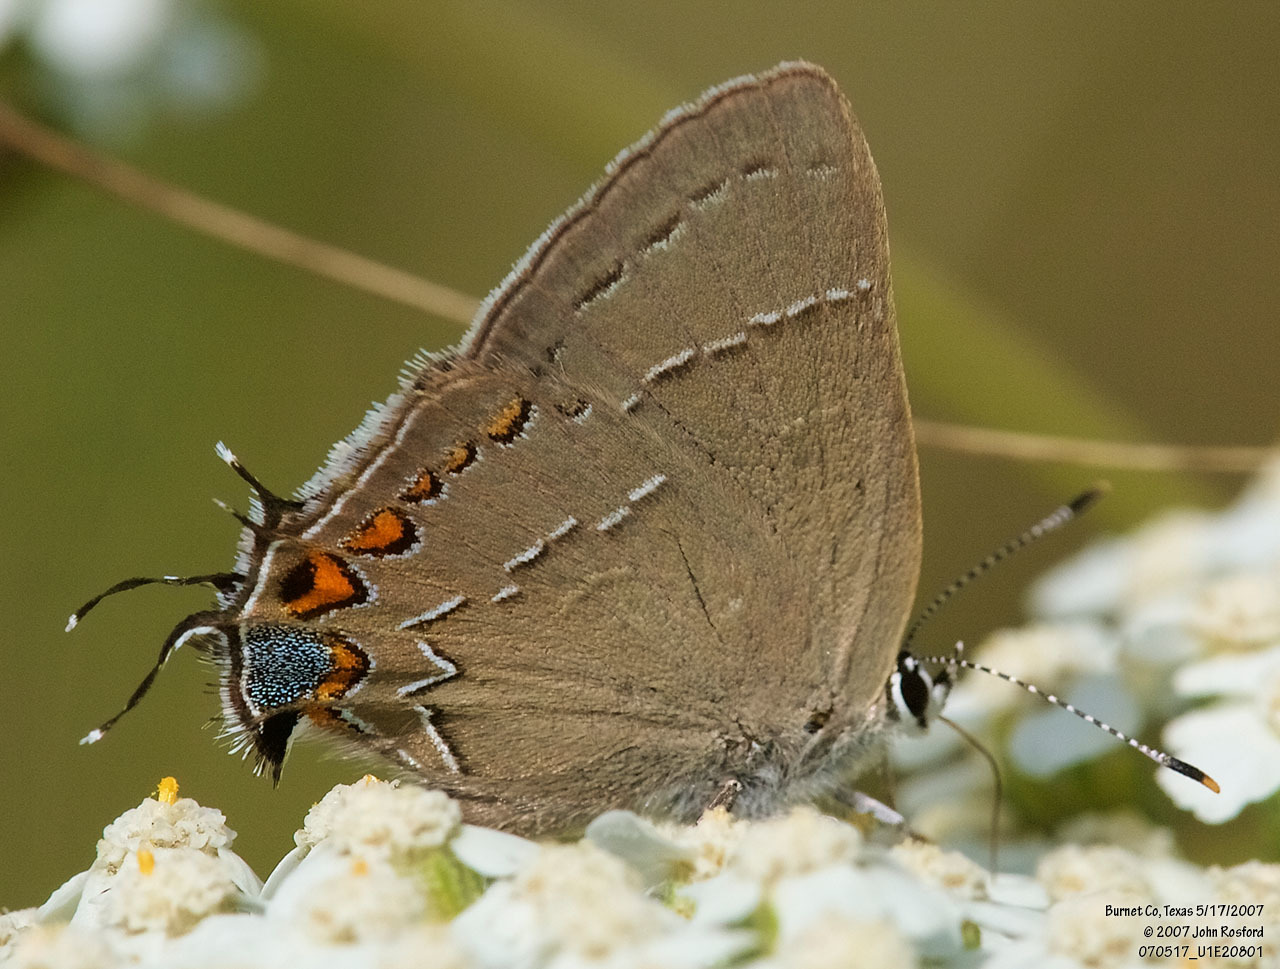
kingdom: Animalia
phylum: Arthropoda
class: Insecta
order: Lepidoptera
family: Lycaenidae
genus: Fixsenia
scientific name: Fixsenia favonius
